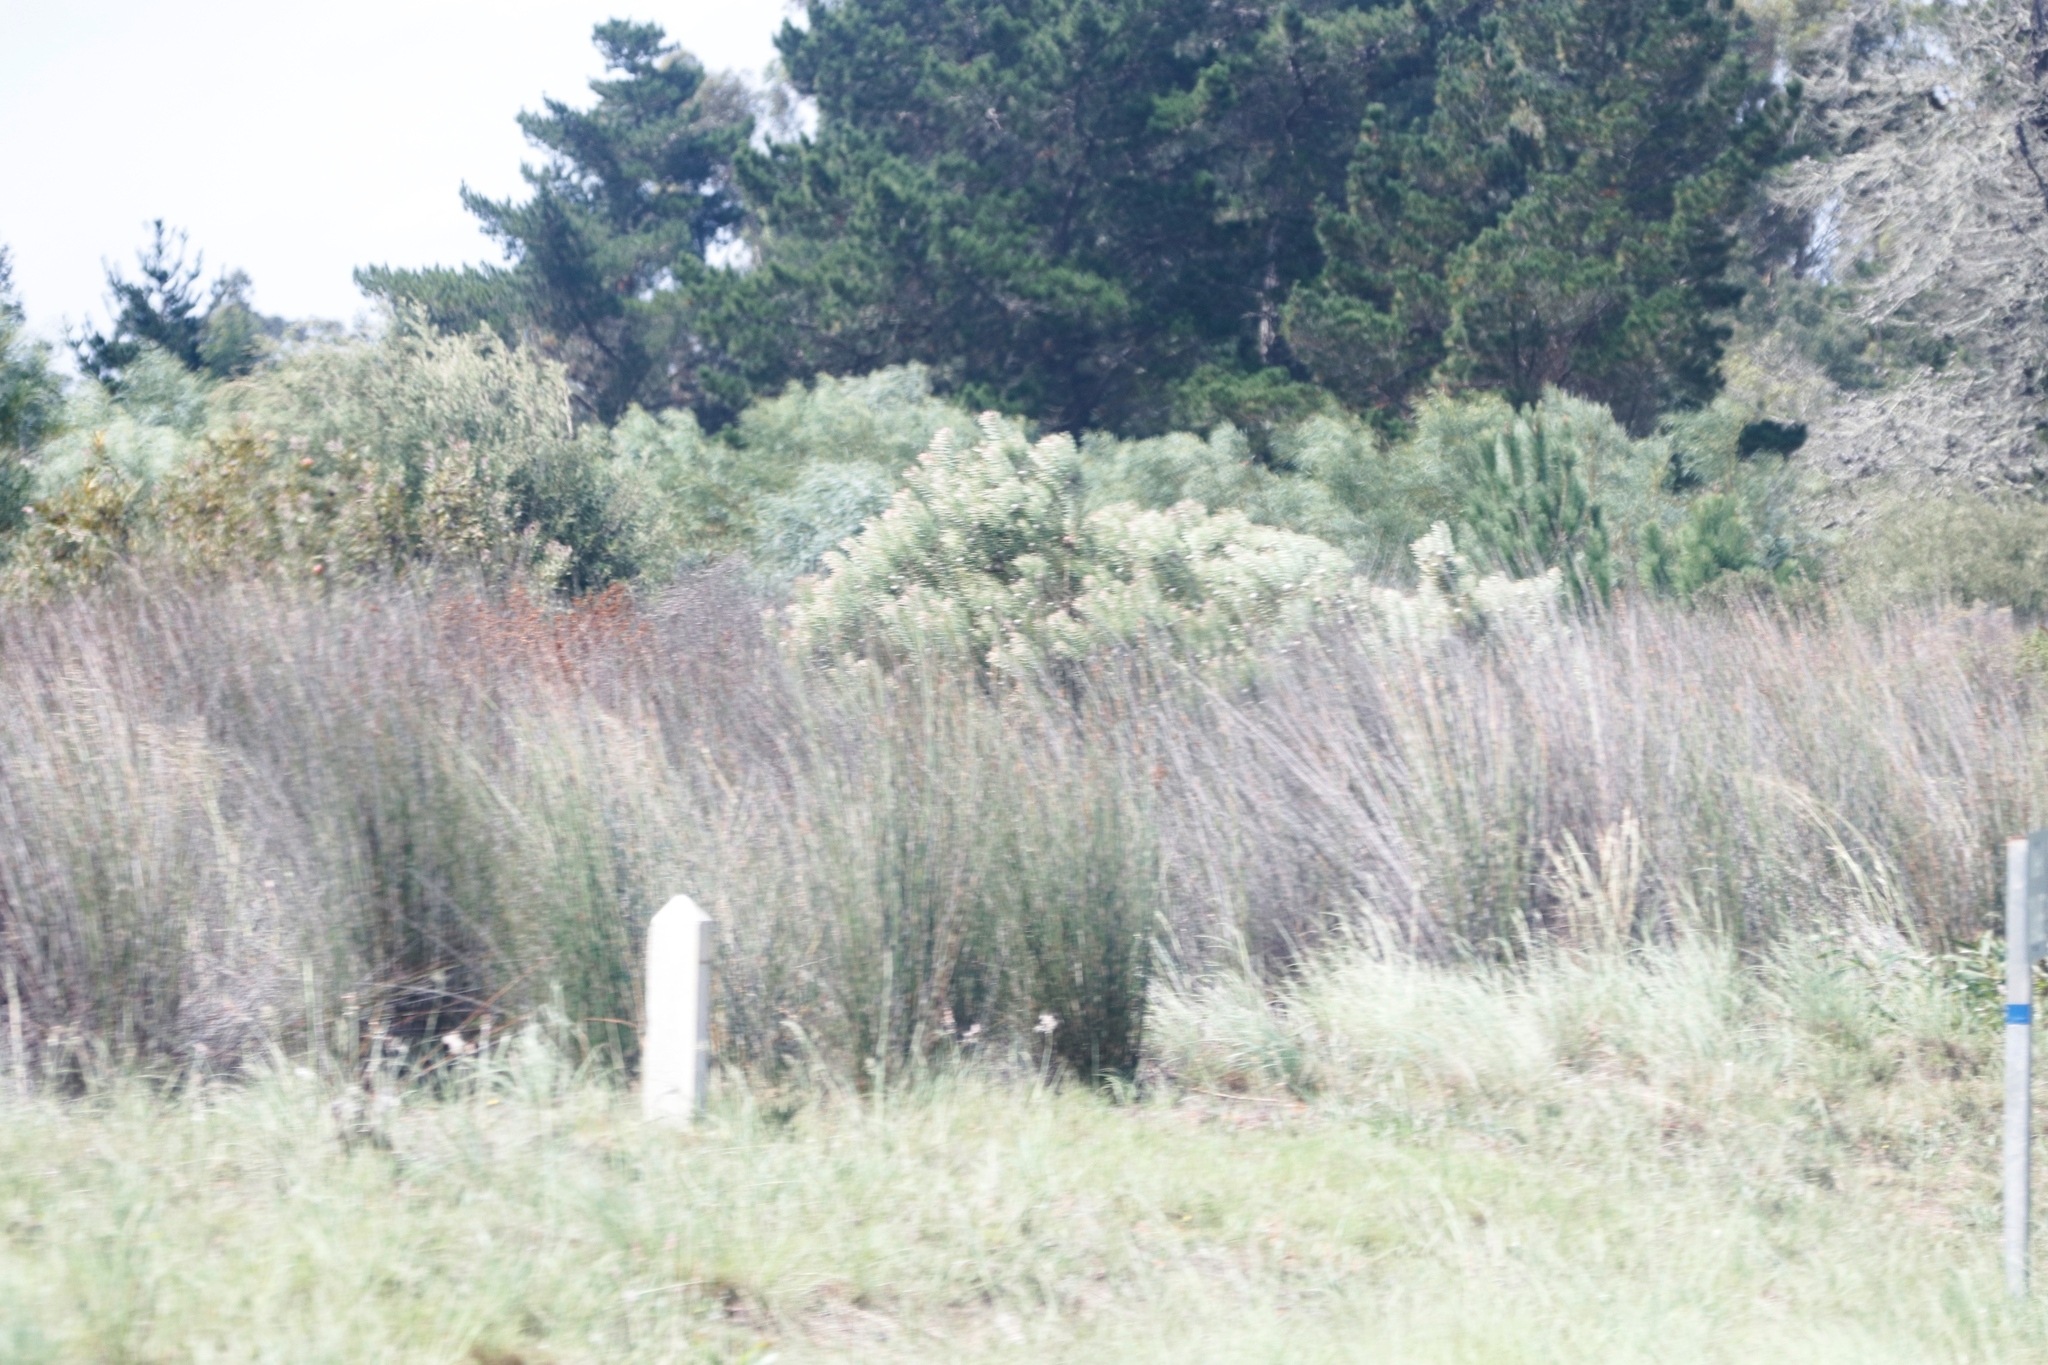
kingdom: Plantae
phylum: Tracheophyta
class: Magnoliopsida
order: Proteales
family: Proteaceae
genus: Leucadendron
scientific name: Leucadendron galpinii
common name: Hairless conebush
